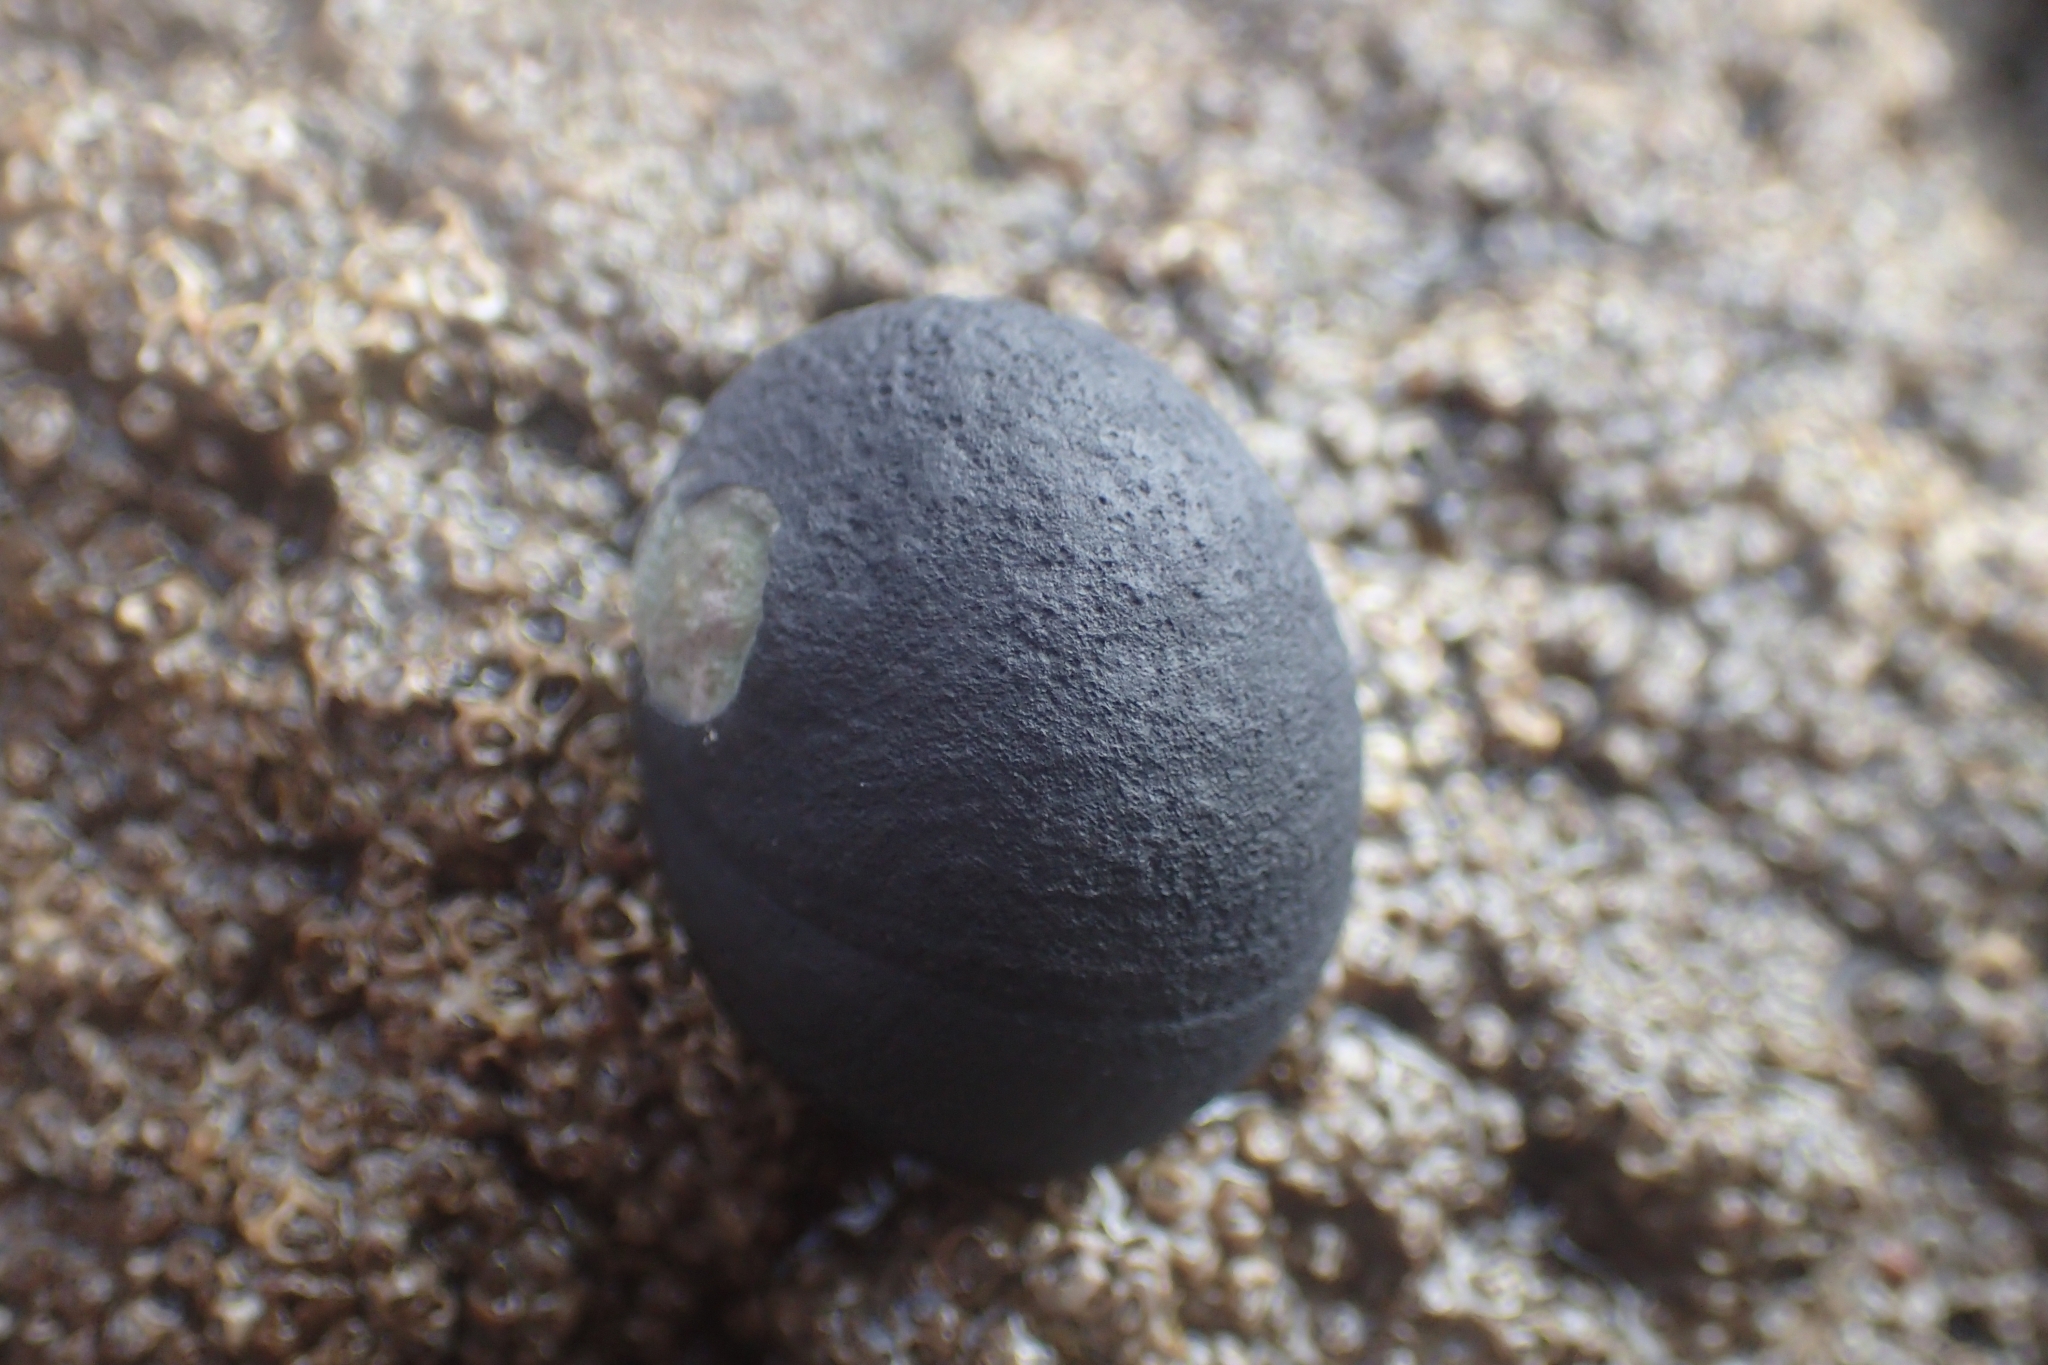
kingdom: Animalia
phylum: Mollusca
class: Gastropoda
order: Cycloneritida
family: Neritidae
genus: Nerita
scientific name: Nerita melanotragus
